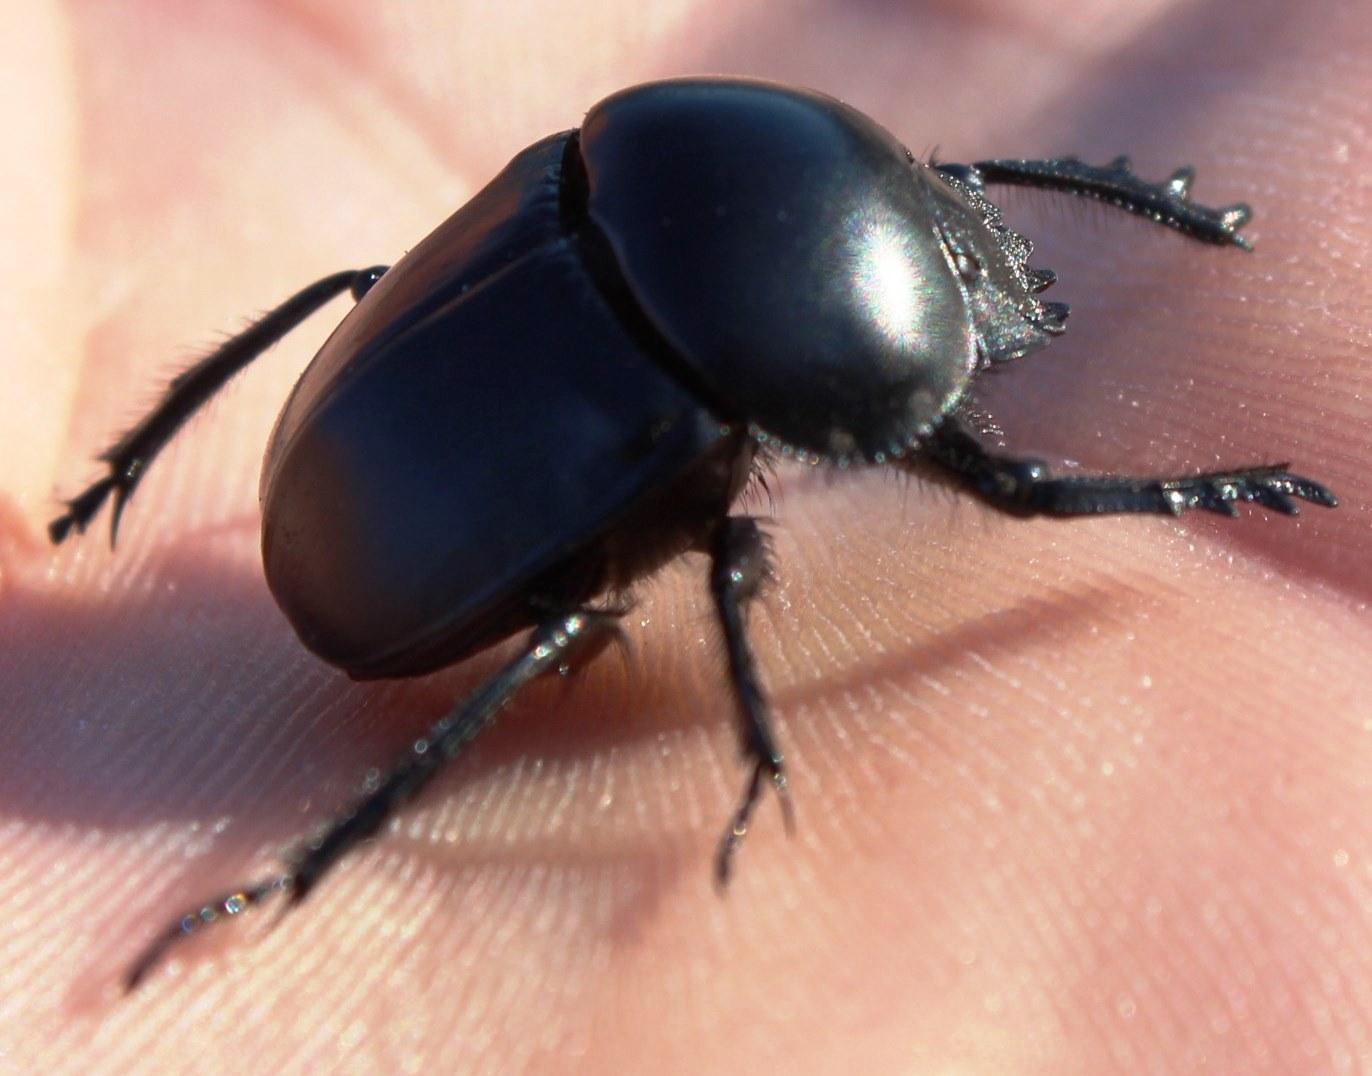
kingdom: Animalia
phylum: Arthropoda
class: Insecta
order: Coleoptera
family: Scarabaeidae
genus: Scarabaeus
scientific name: Scarabaeus convexus
